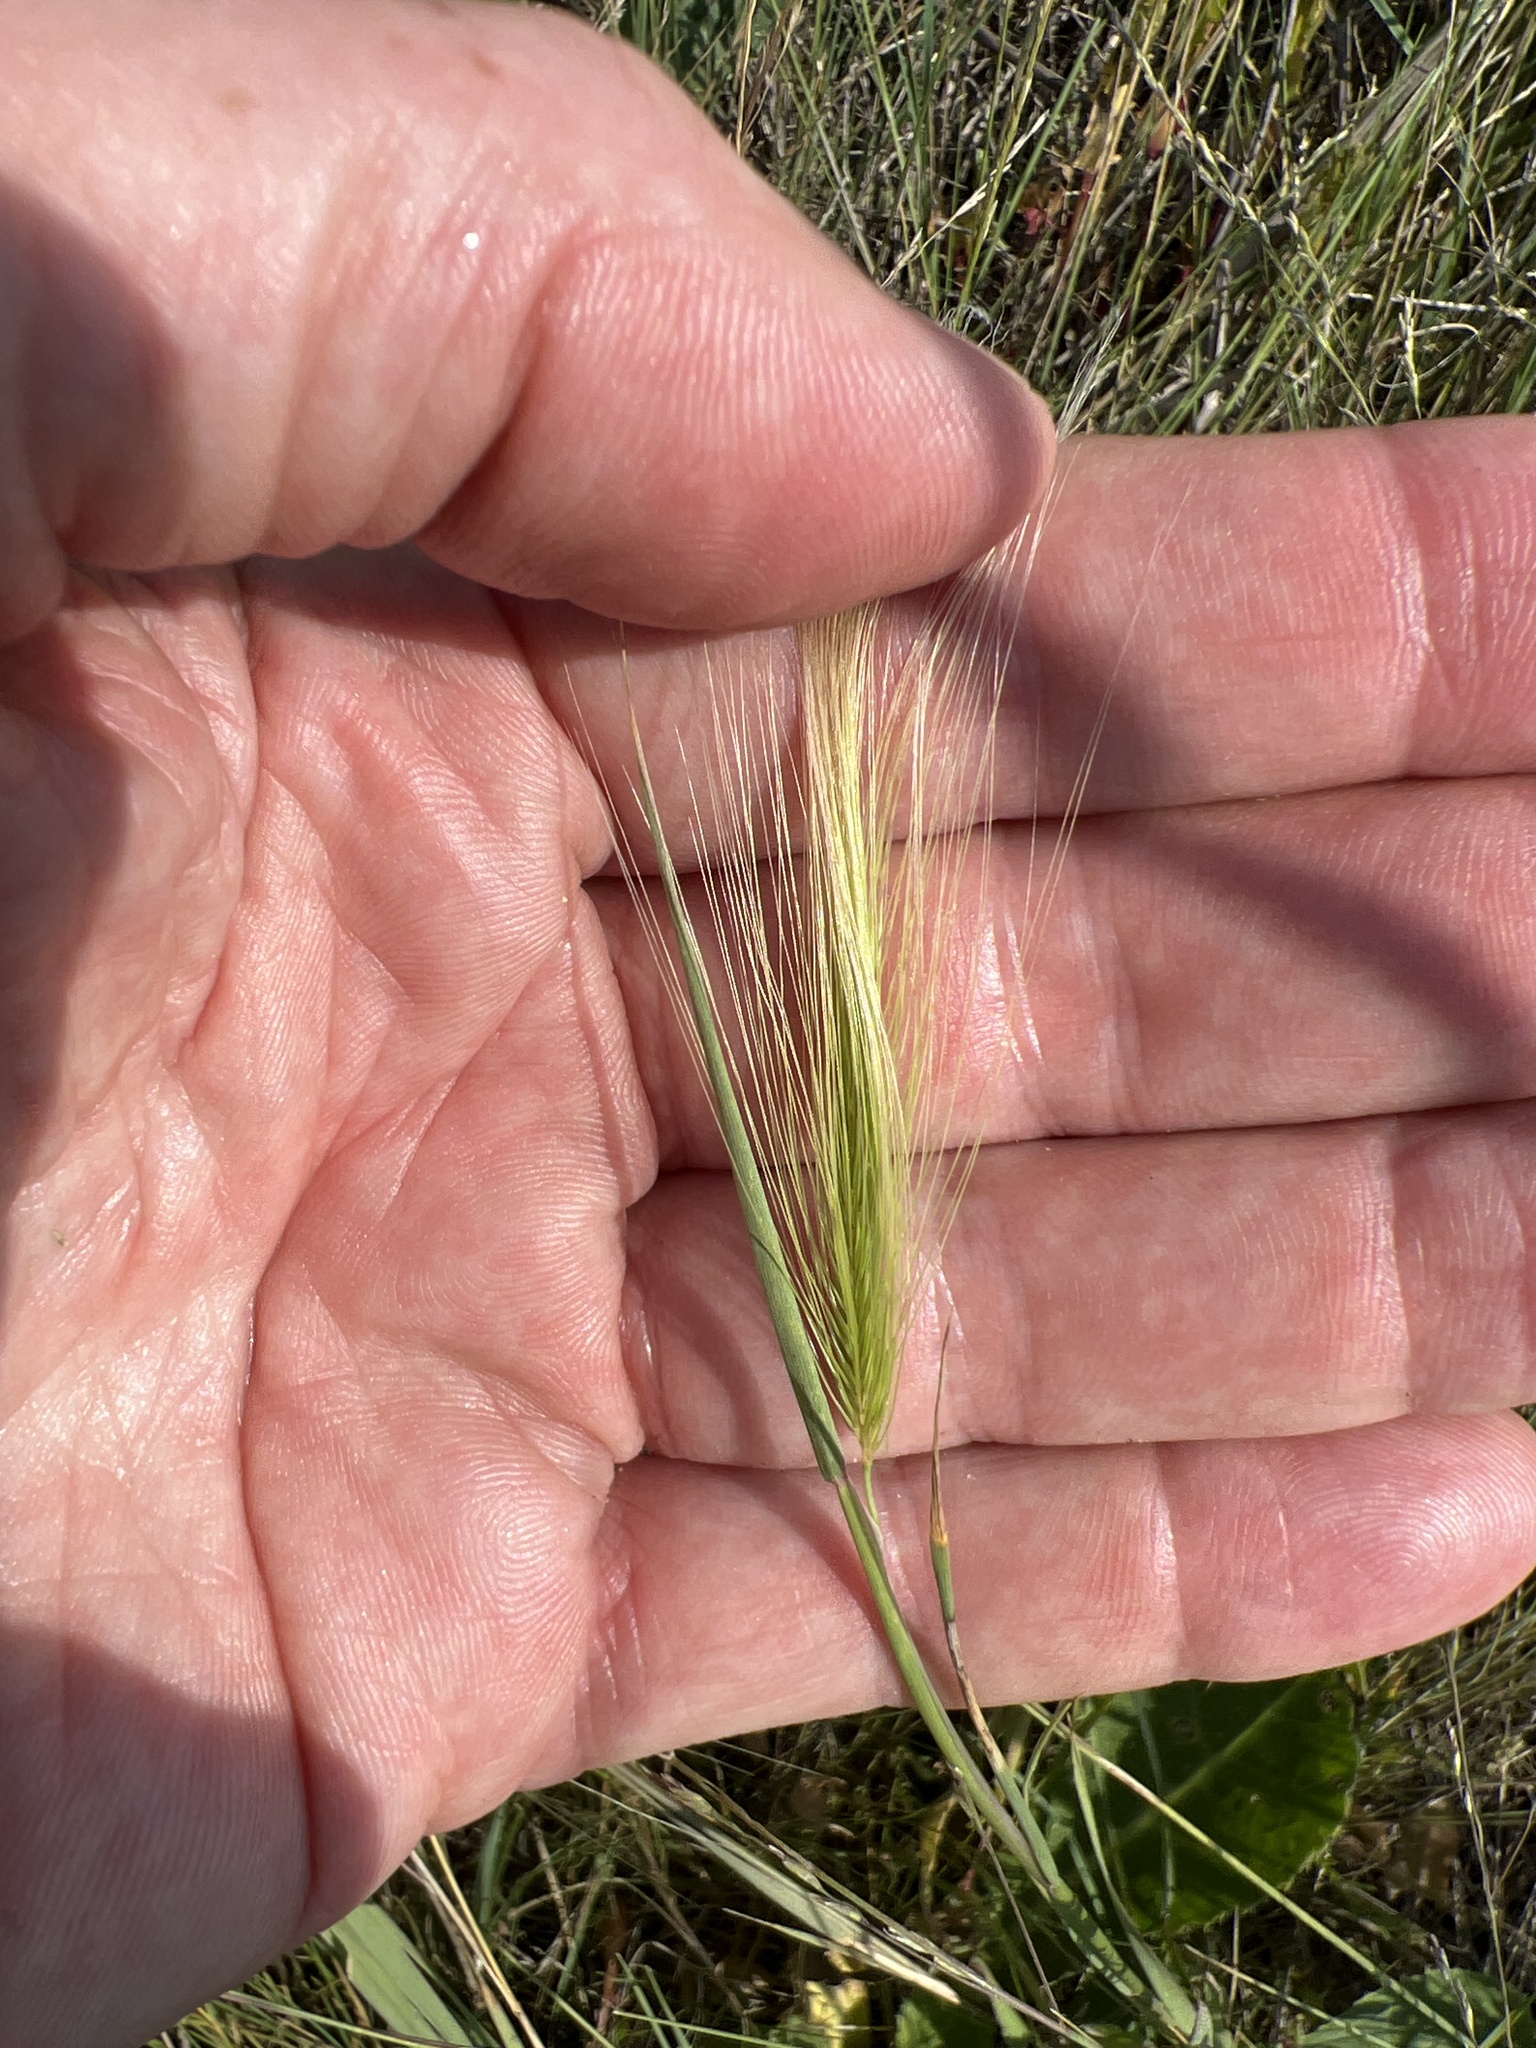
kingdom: Plantae
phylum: Tracheophyta
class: Liliopsida
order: Poales
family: Poaceae
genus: Hordeum
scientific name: Hordeum jubatum
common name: Foxtail barley
